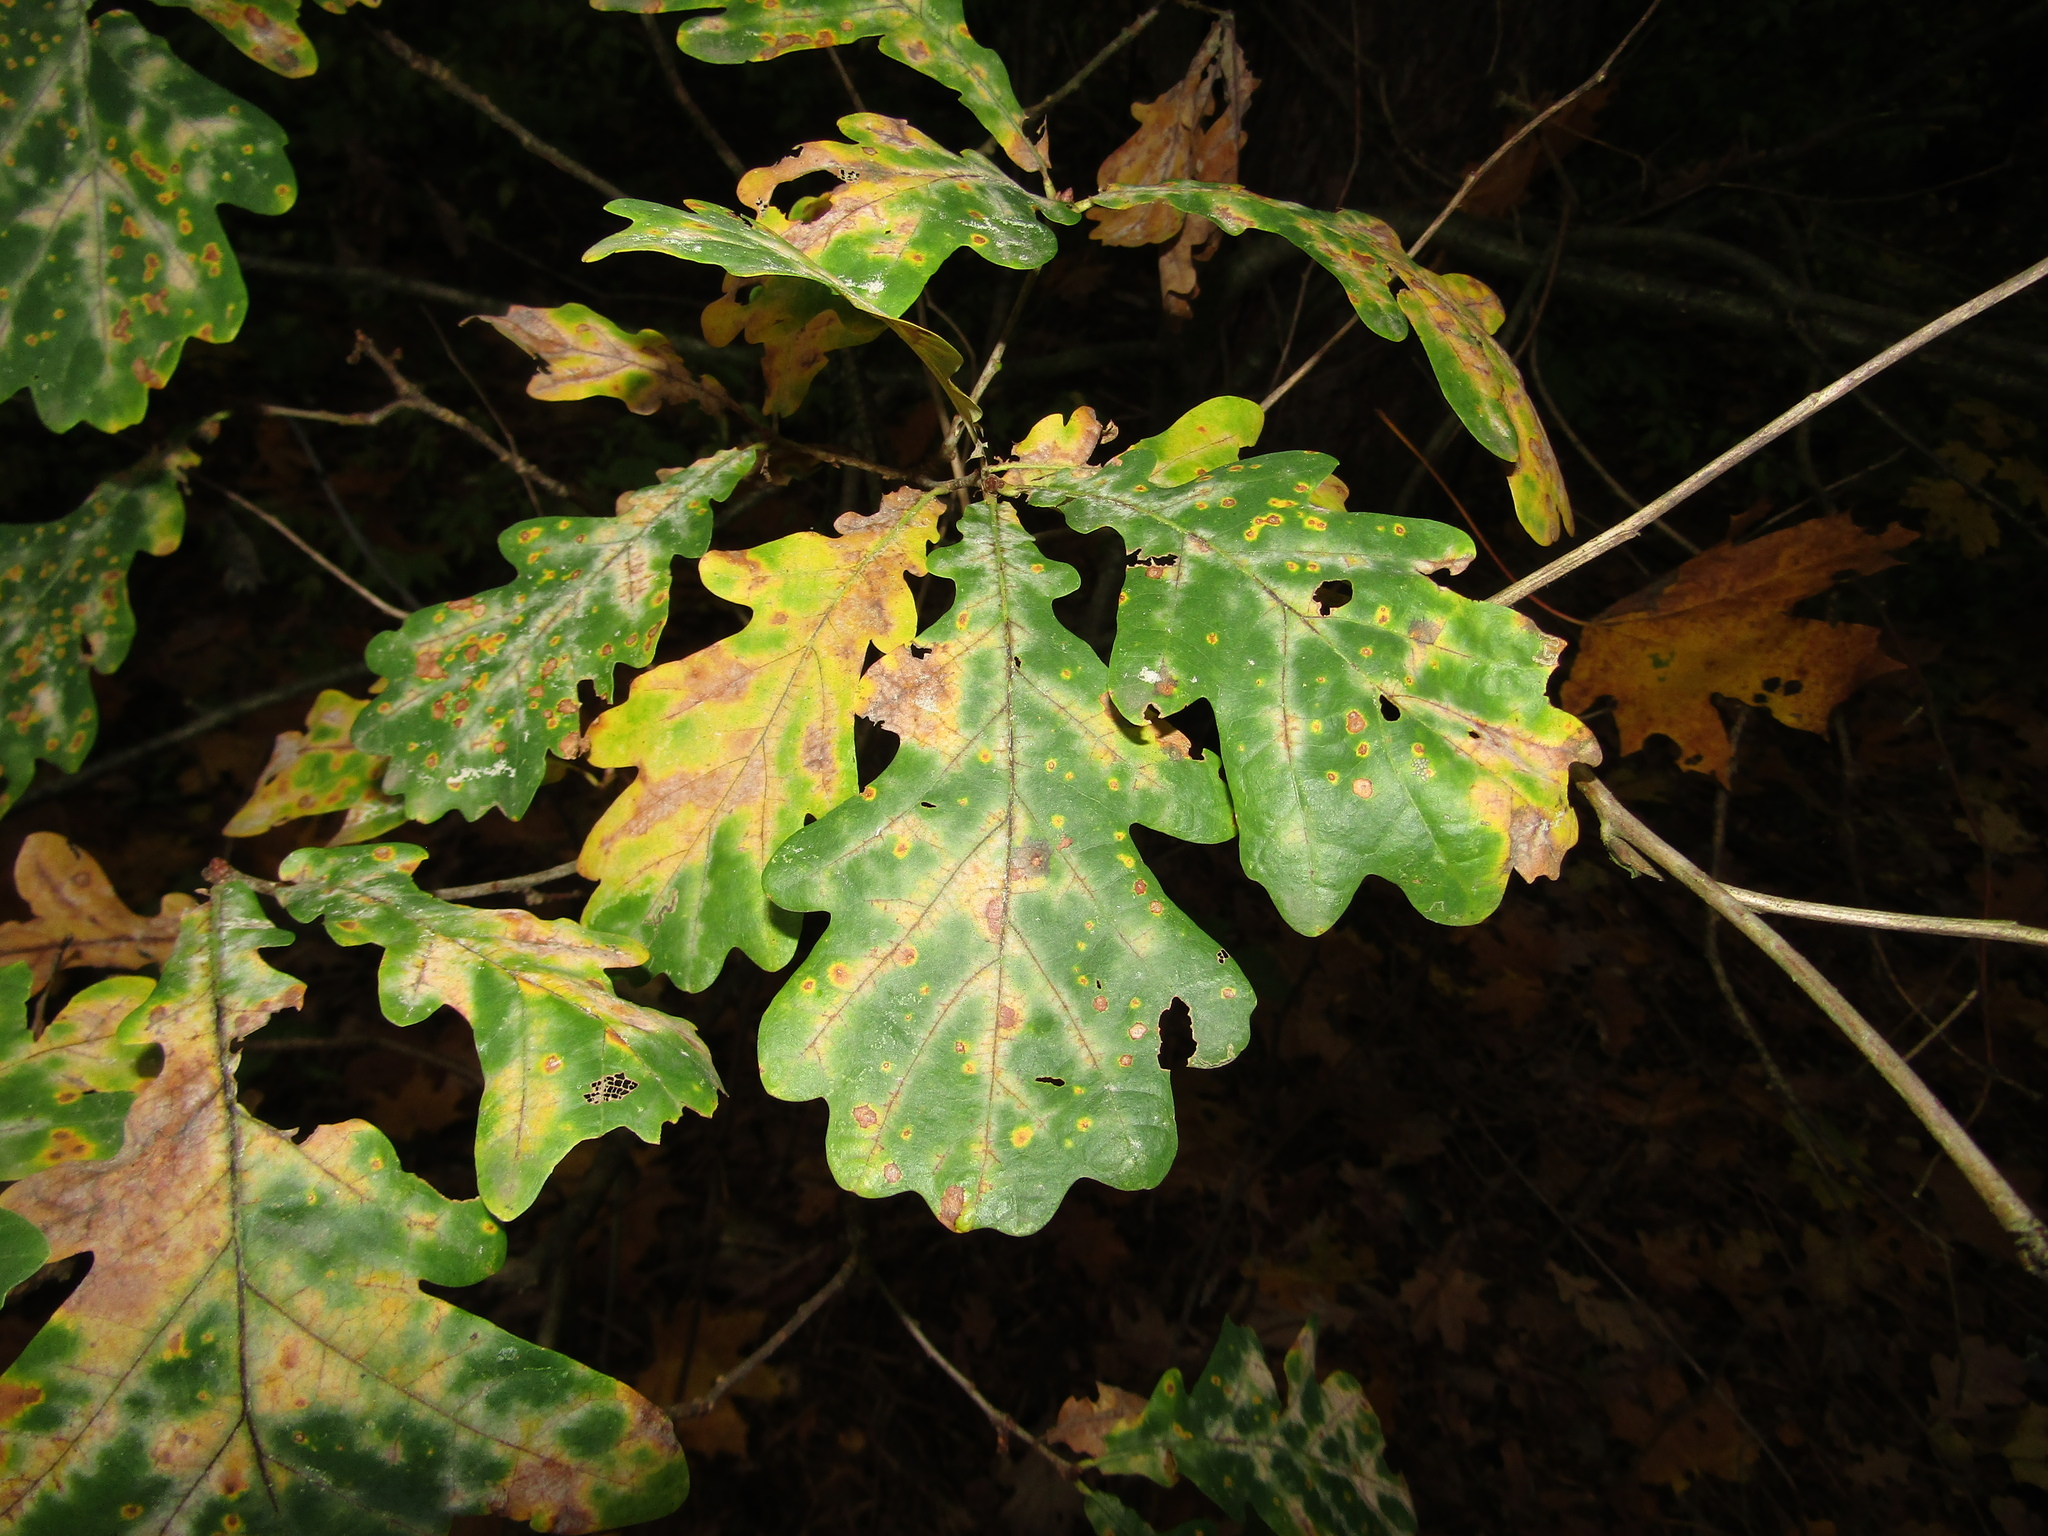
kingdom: Plantae
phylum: Tracheophyta
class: Magnoliopsida
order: Fagales
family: Fagaceae
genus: Quercus
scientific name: Quercus robur
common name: Pedunculate oak
